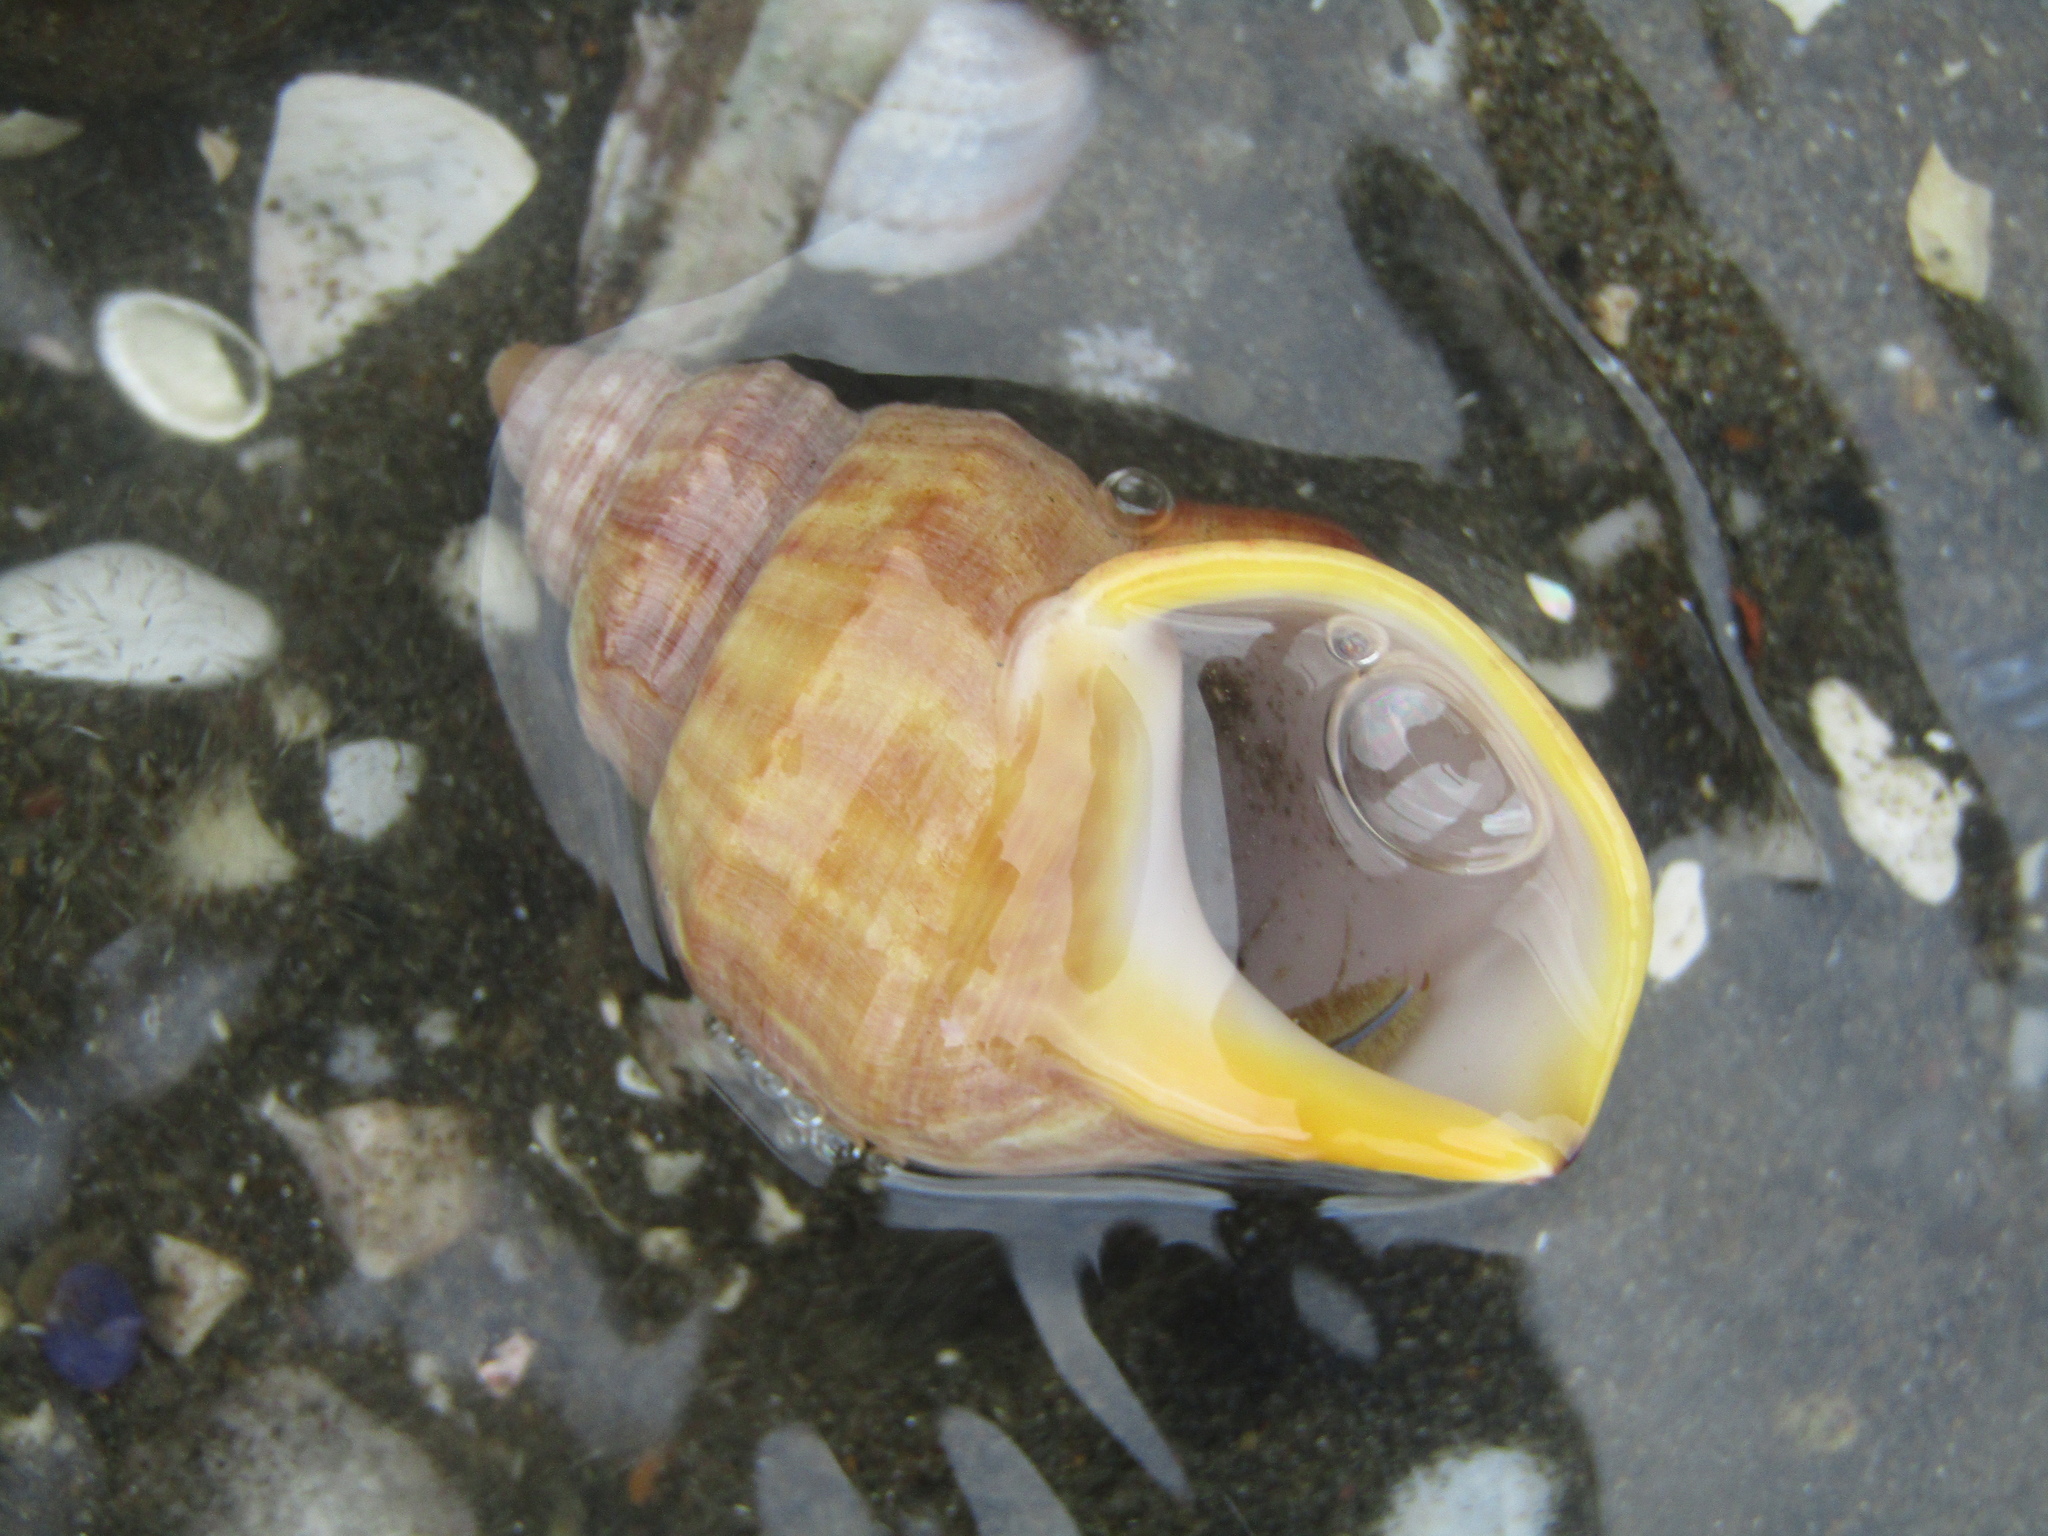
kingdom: Animalia
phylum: Mollusca
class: Gastropoda
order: Littorinimorpha
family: Struthiolariidae
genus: Pelicaria
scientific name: Pelicaria vermis
